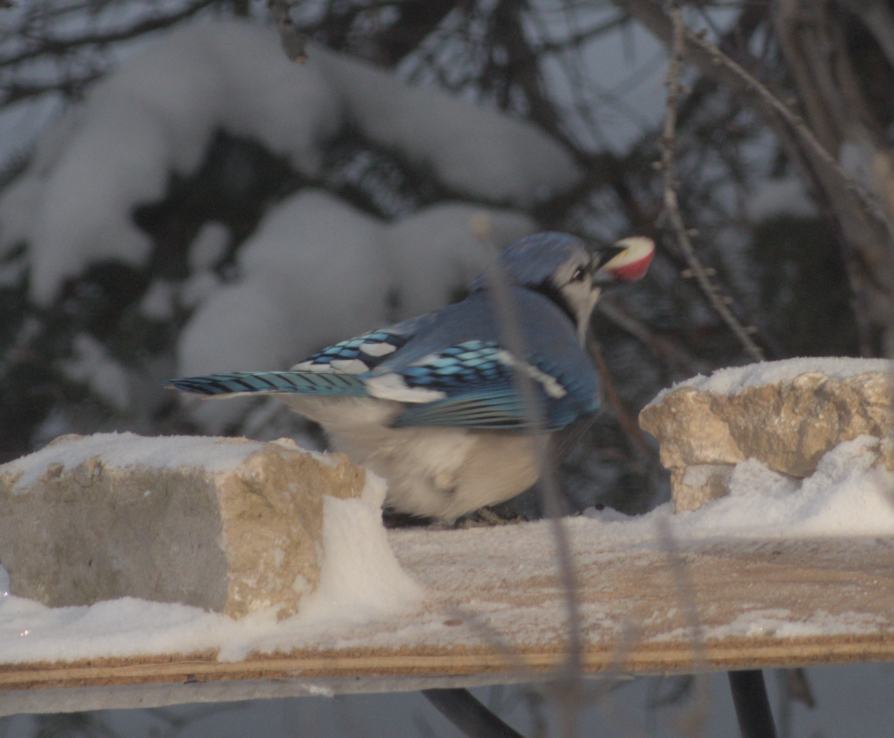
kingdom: Animalia
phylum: Chordata
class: Aves
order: Passeriformes
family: Corvidae
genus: Cyanocitta
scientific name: Cyanocitta cristata
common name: Blue jay
